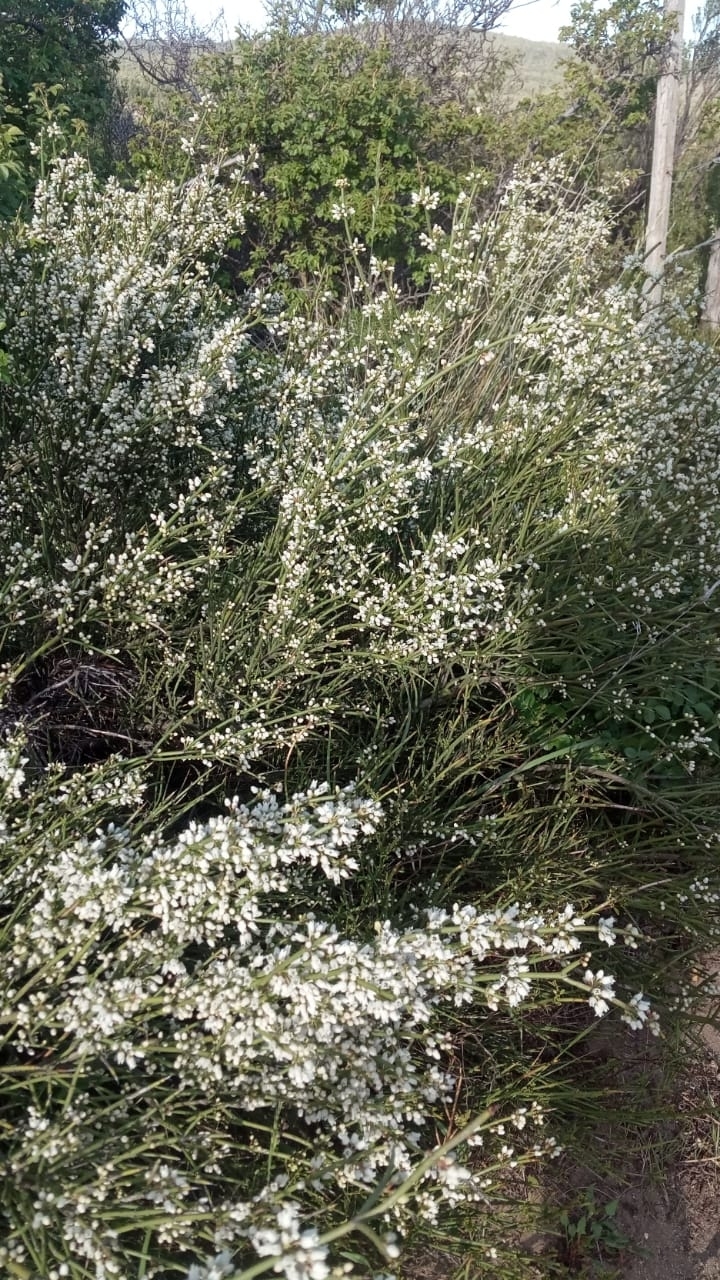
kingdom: Plantae
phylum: Tracheophyta
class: Magnoliopsida
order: Rosales
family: Rhamnaceae
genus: Colletia
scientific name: Colletia hystrix
